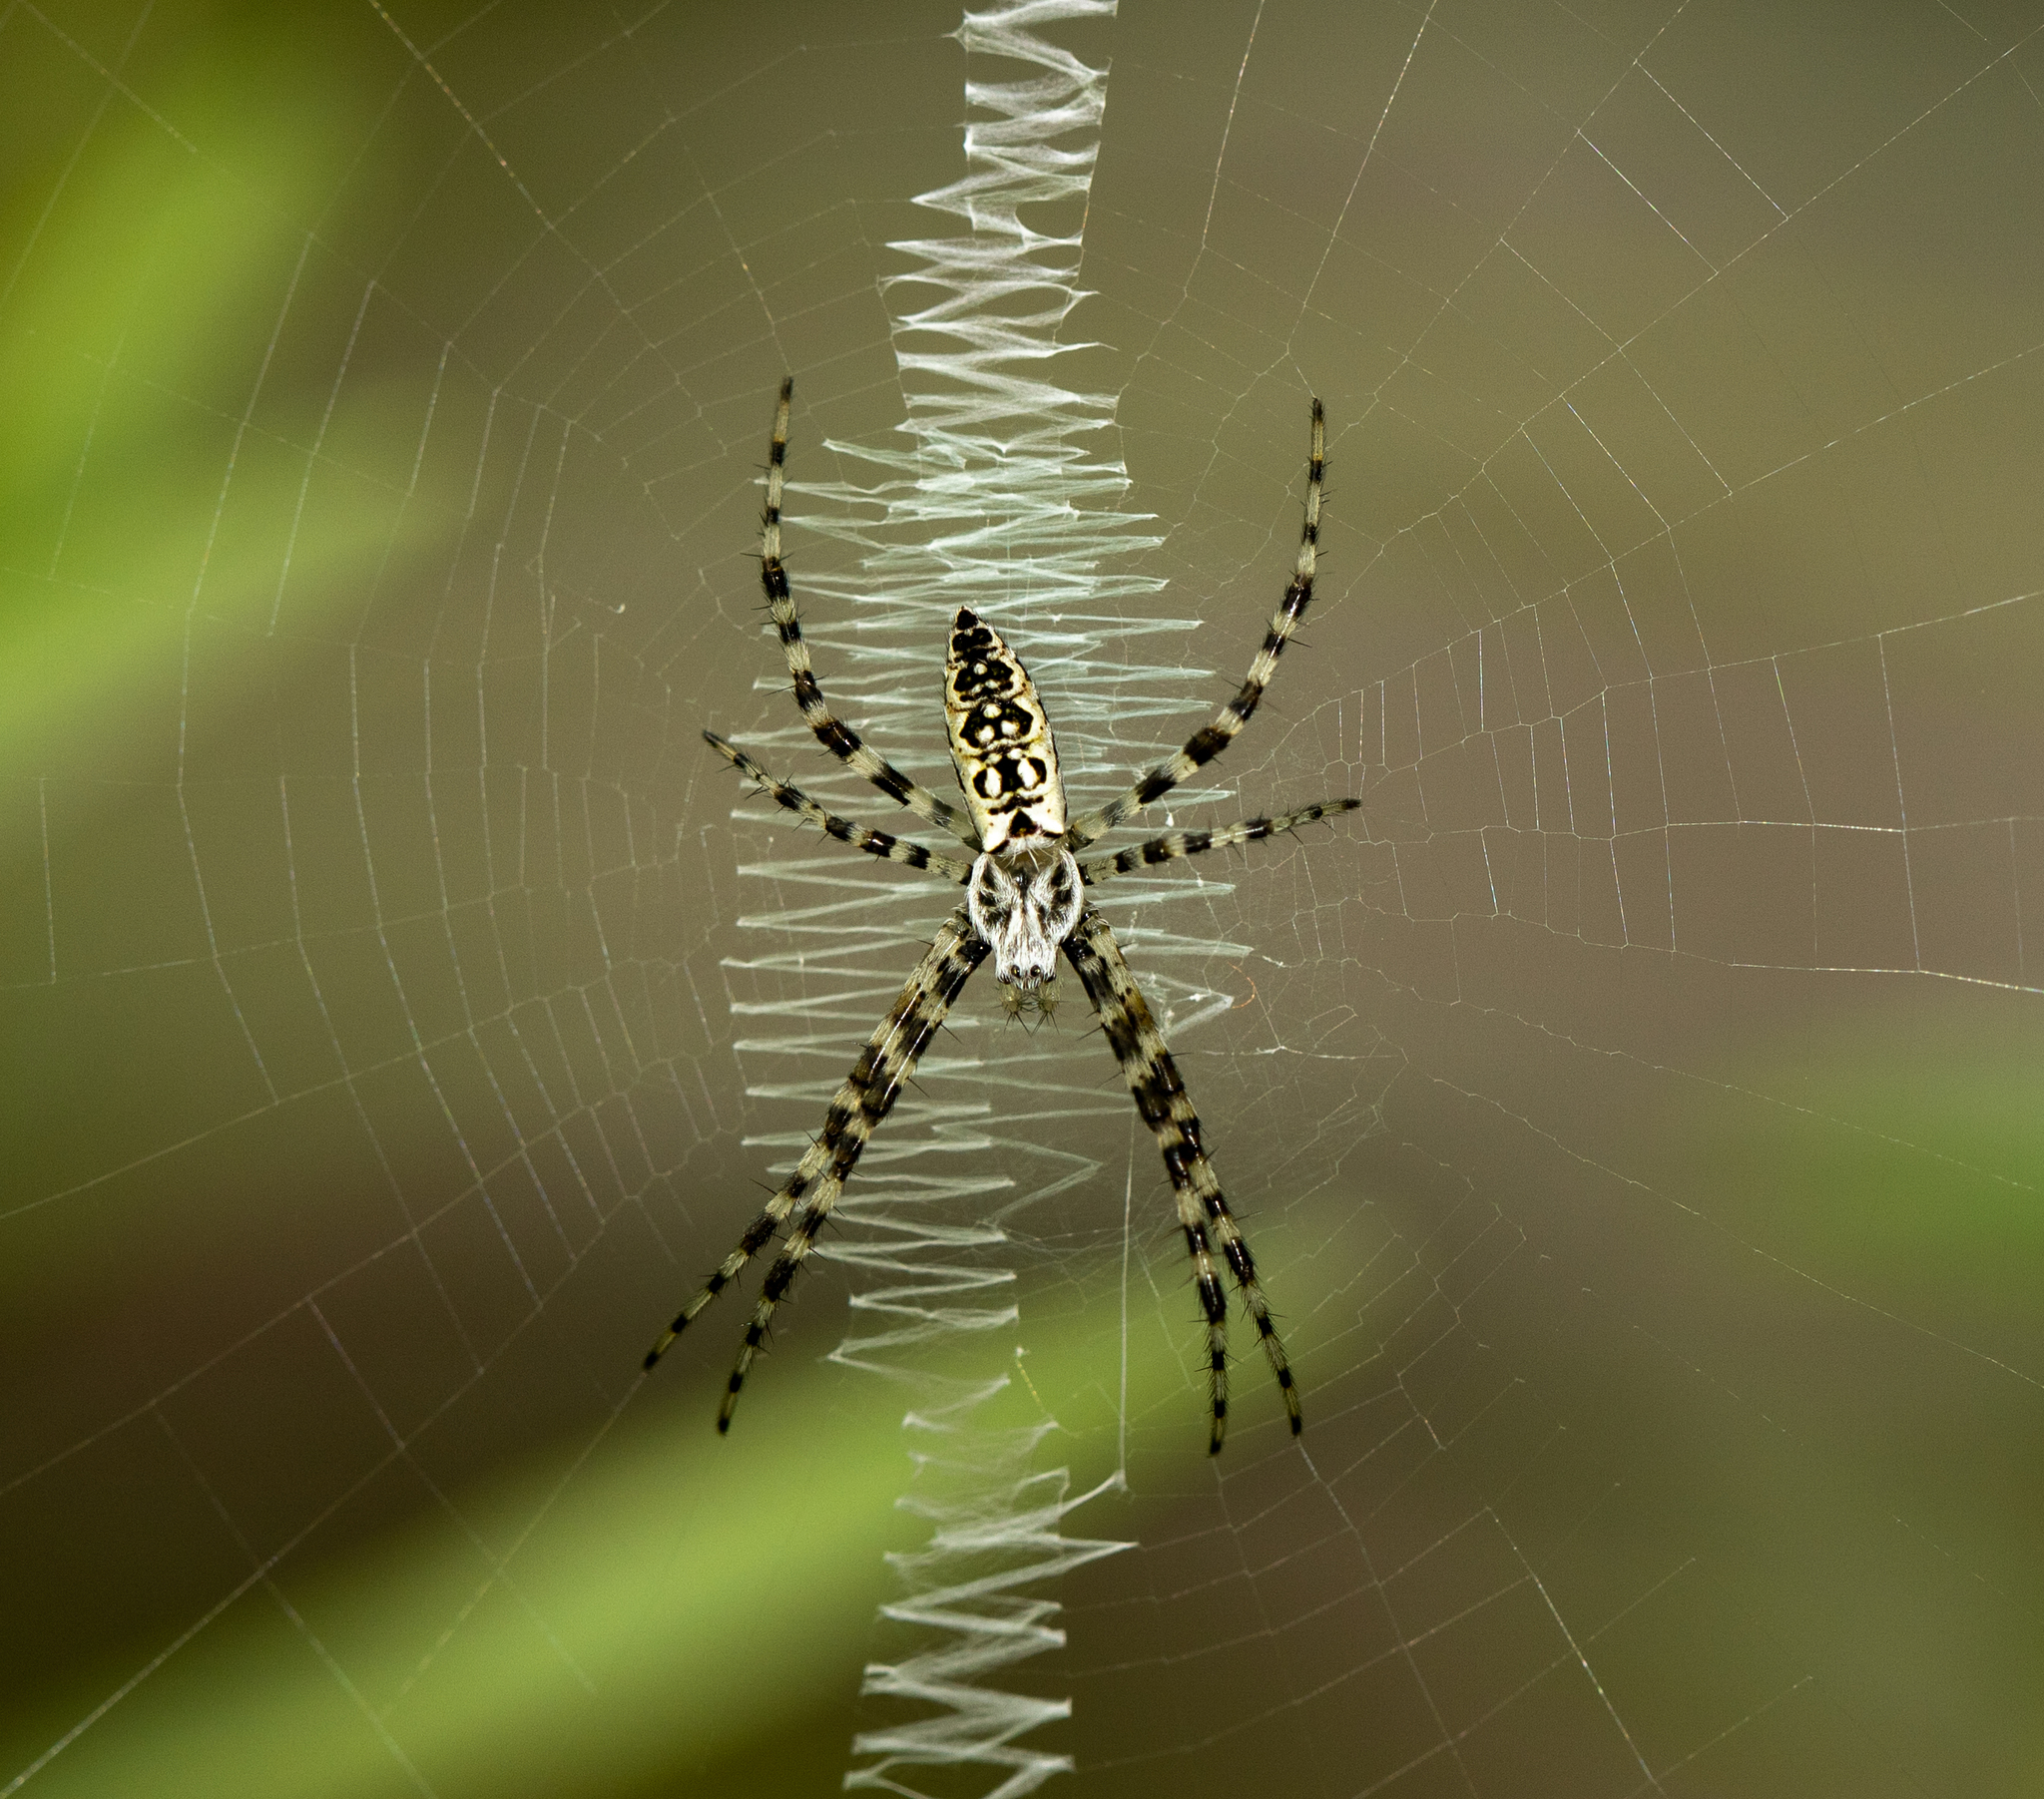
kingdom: Animalia
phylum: Arthropoda
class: Arachnida
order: Araneae
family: Araneidae
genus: Argiope
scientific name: Argiope aurantia
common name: Orb weavers
